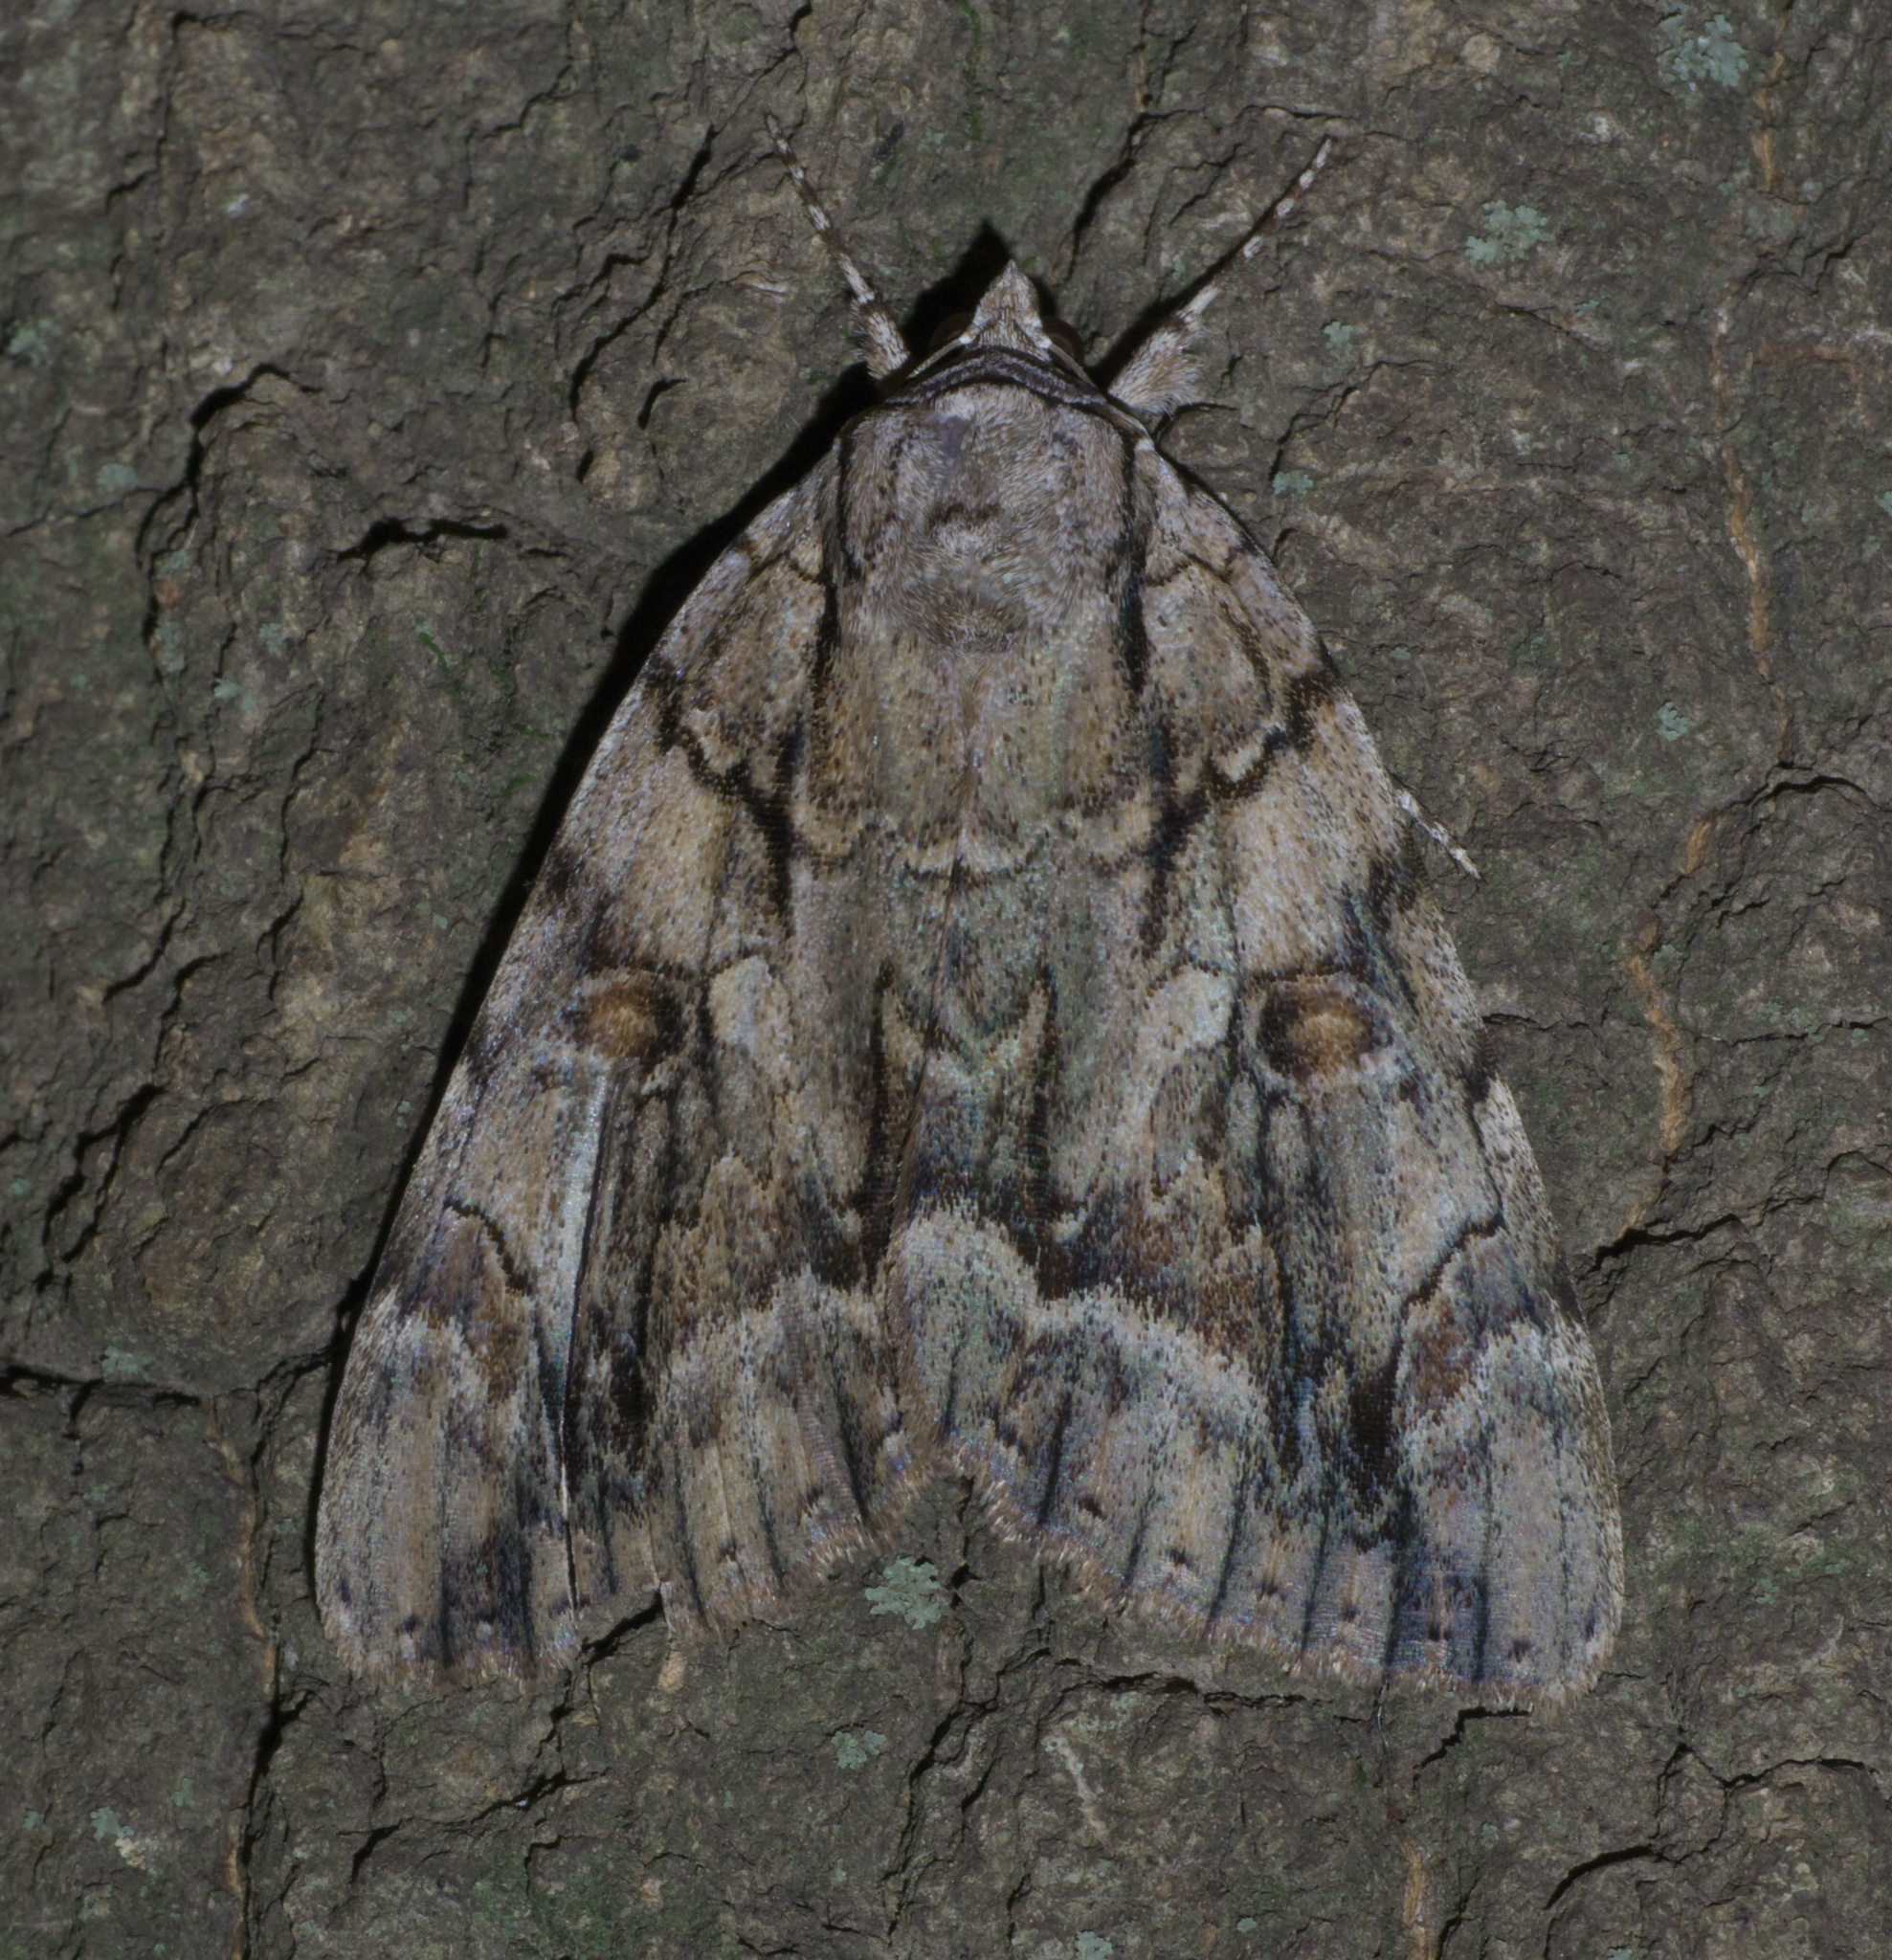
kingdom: Animalia
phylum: Arthropoda
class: Insecta
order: Lepidoptera
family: Erebidae
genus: Catocala
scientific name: Catocala retecta
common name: Yellow-gray underwing
